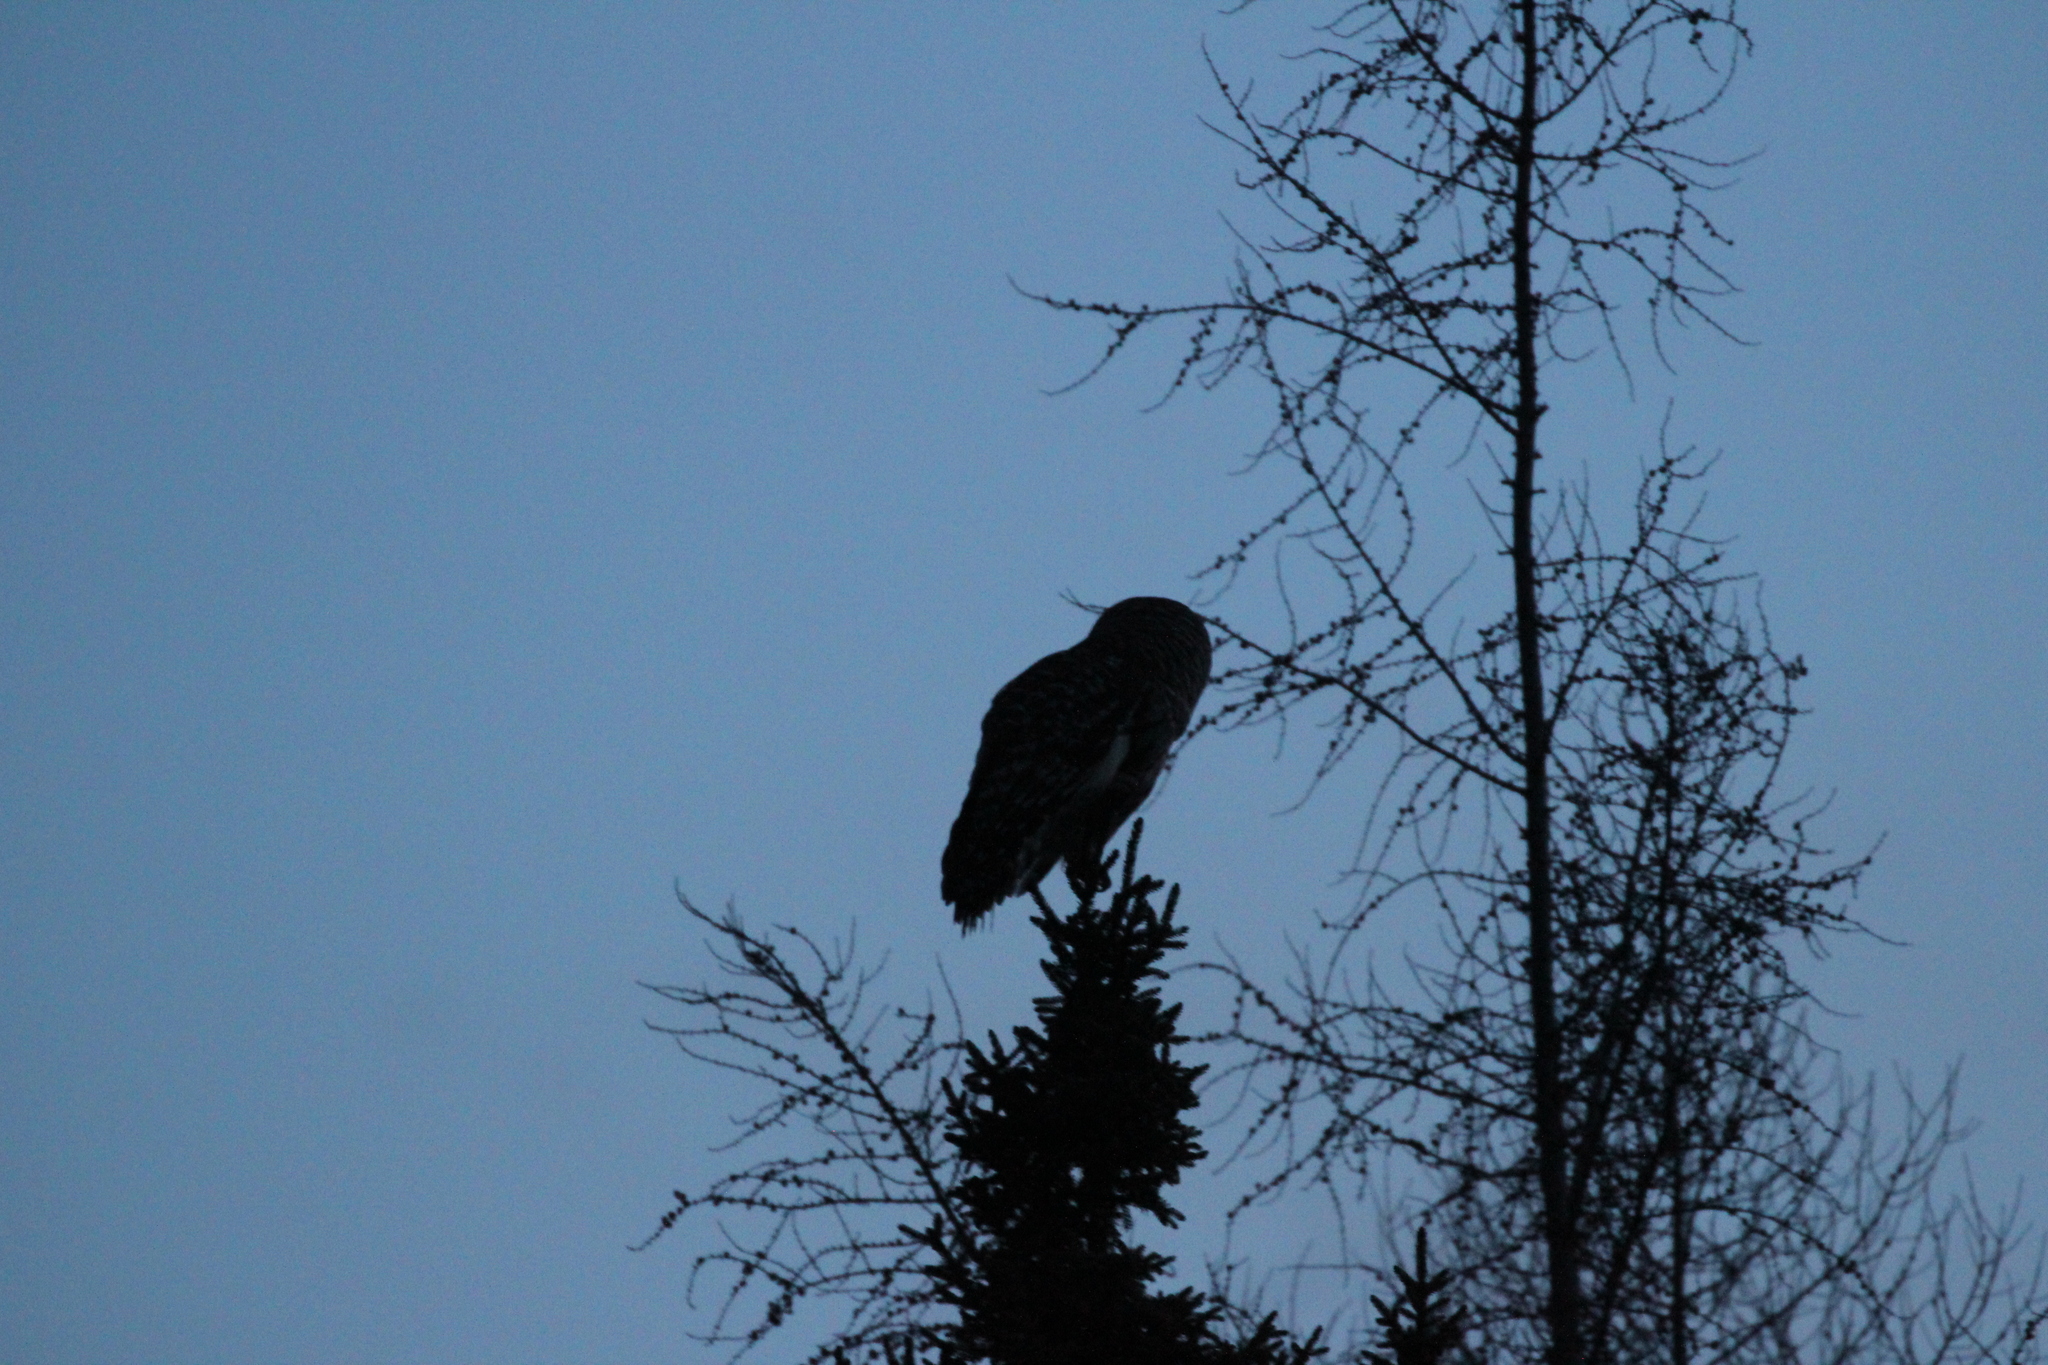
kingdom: Animalia
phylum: Chordata
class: Aves
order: Strigiformes
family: Strigidae
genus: Strix
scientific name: Strix varia
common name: Barred owl
